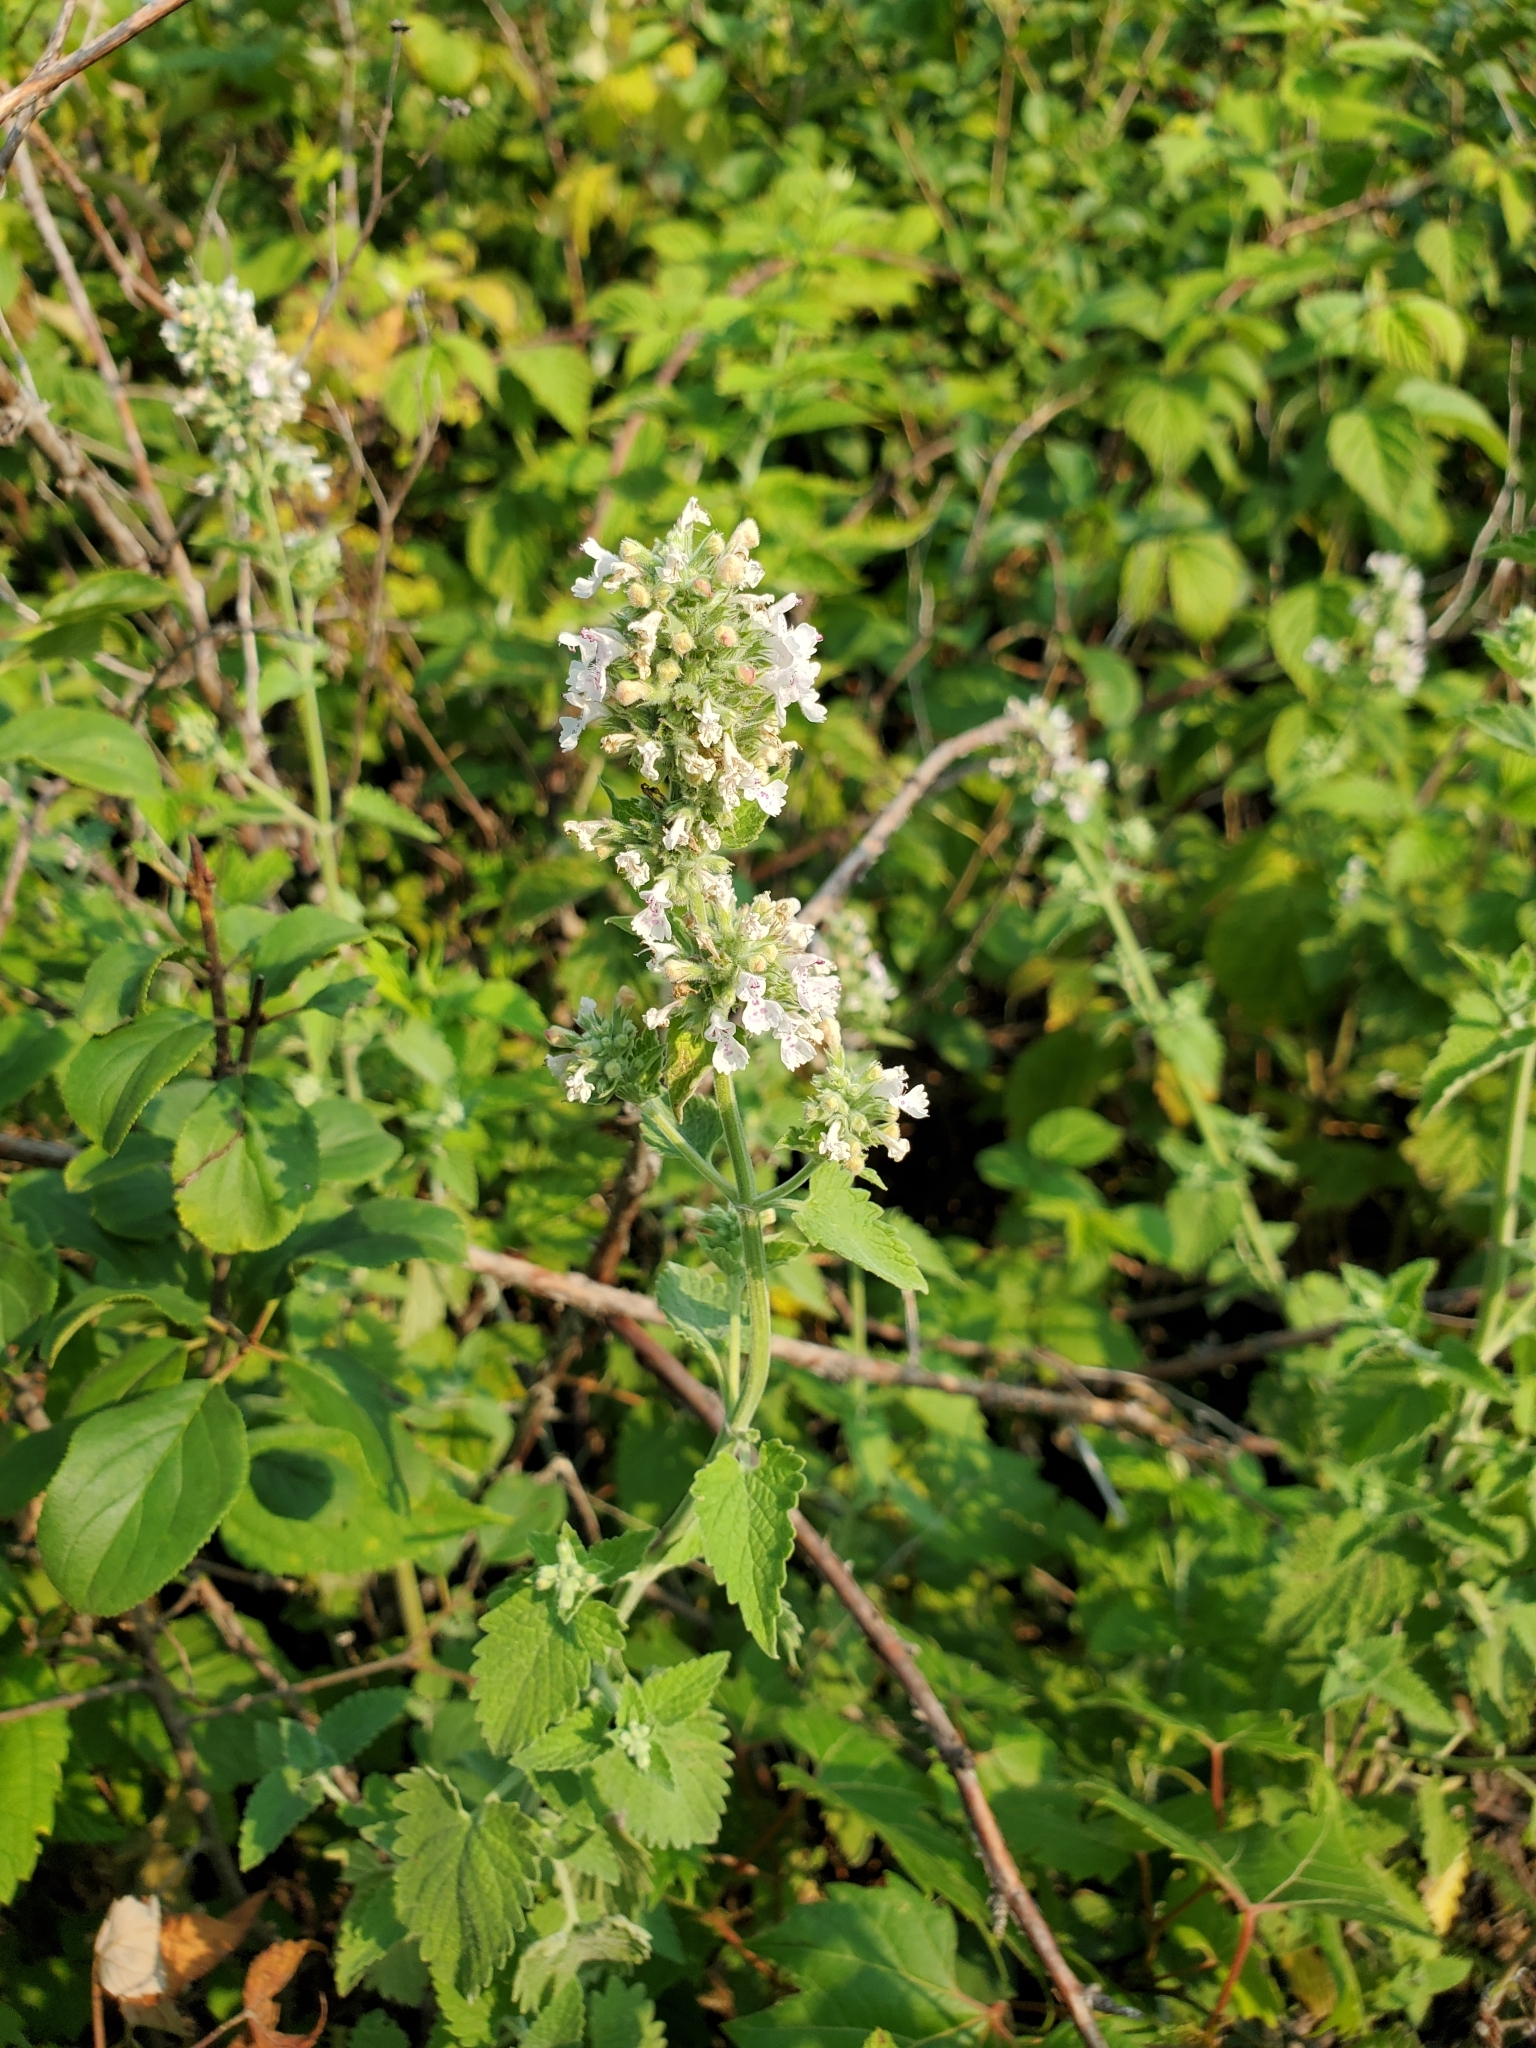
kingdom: Plantae
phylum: Tracheophyta
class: Magnoliopsida
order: Lamiales
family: Lamiaceae
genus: Nepeta
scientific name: Nepeta cataria
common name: Catnip
